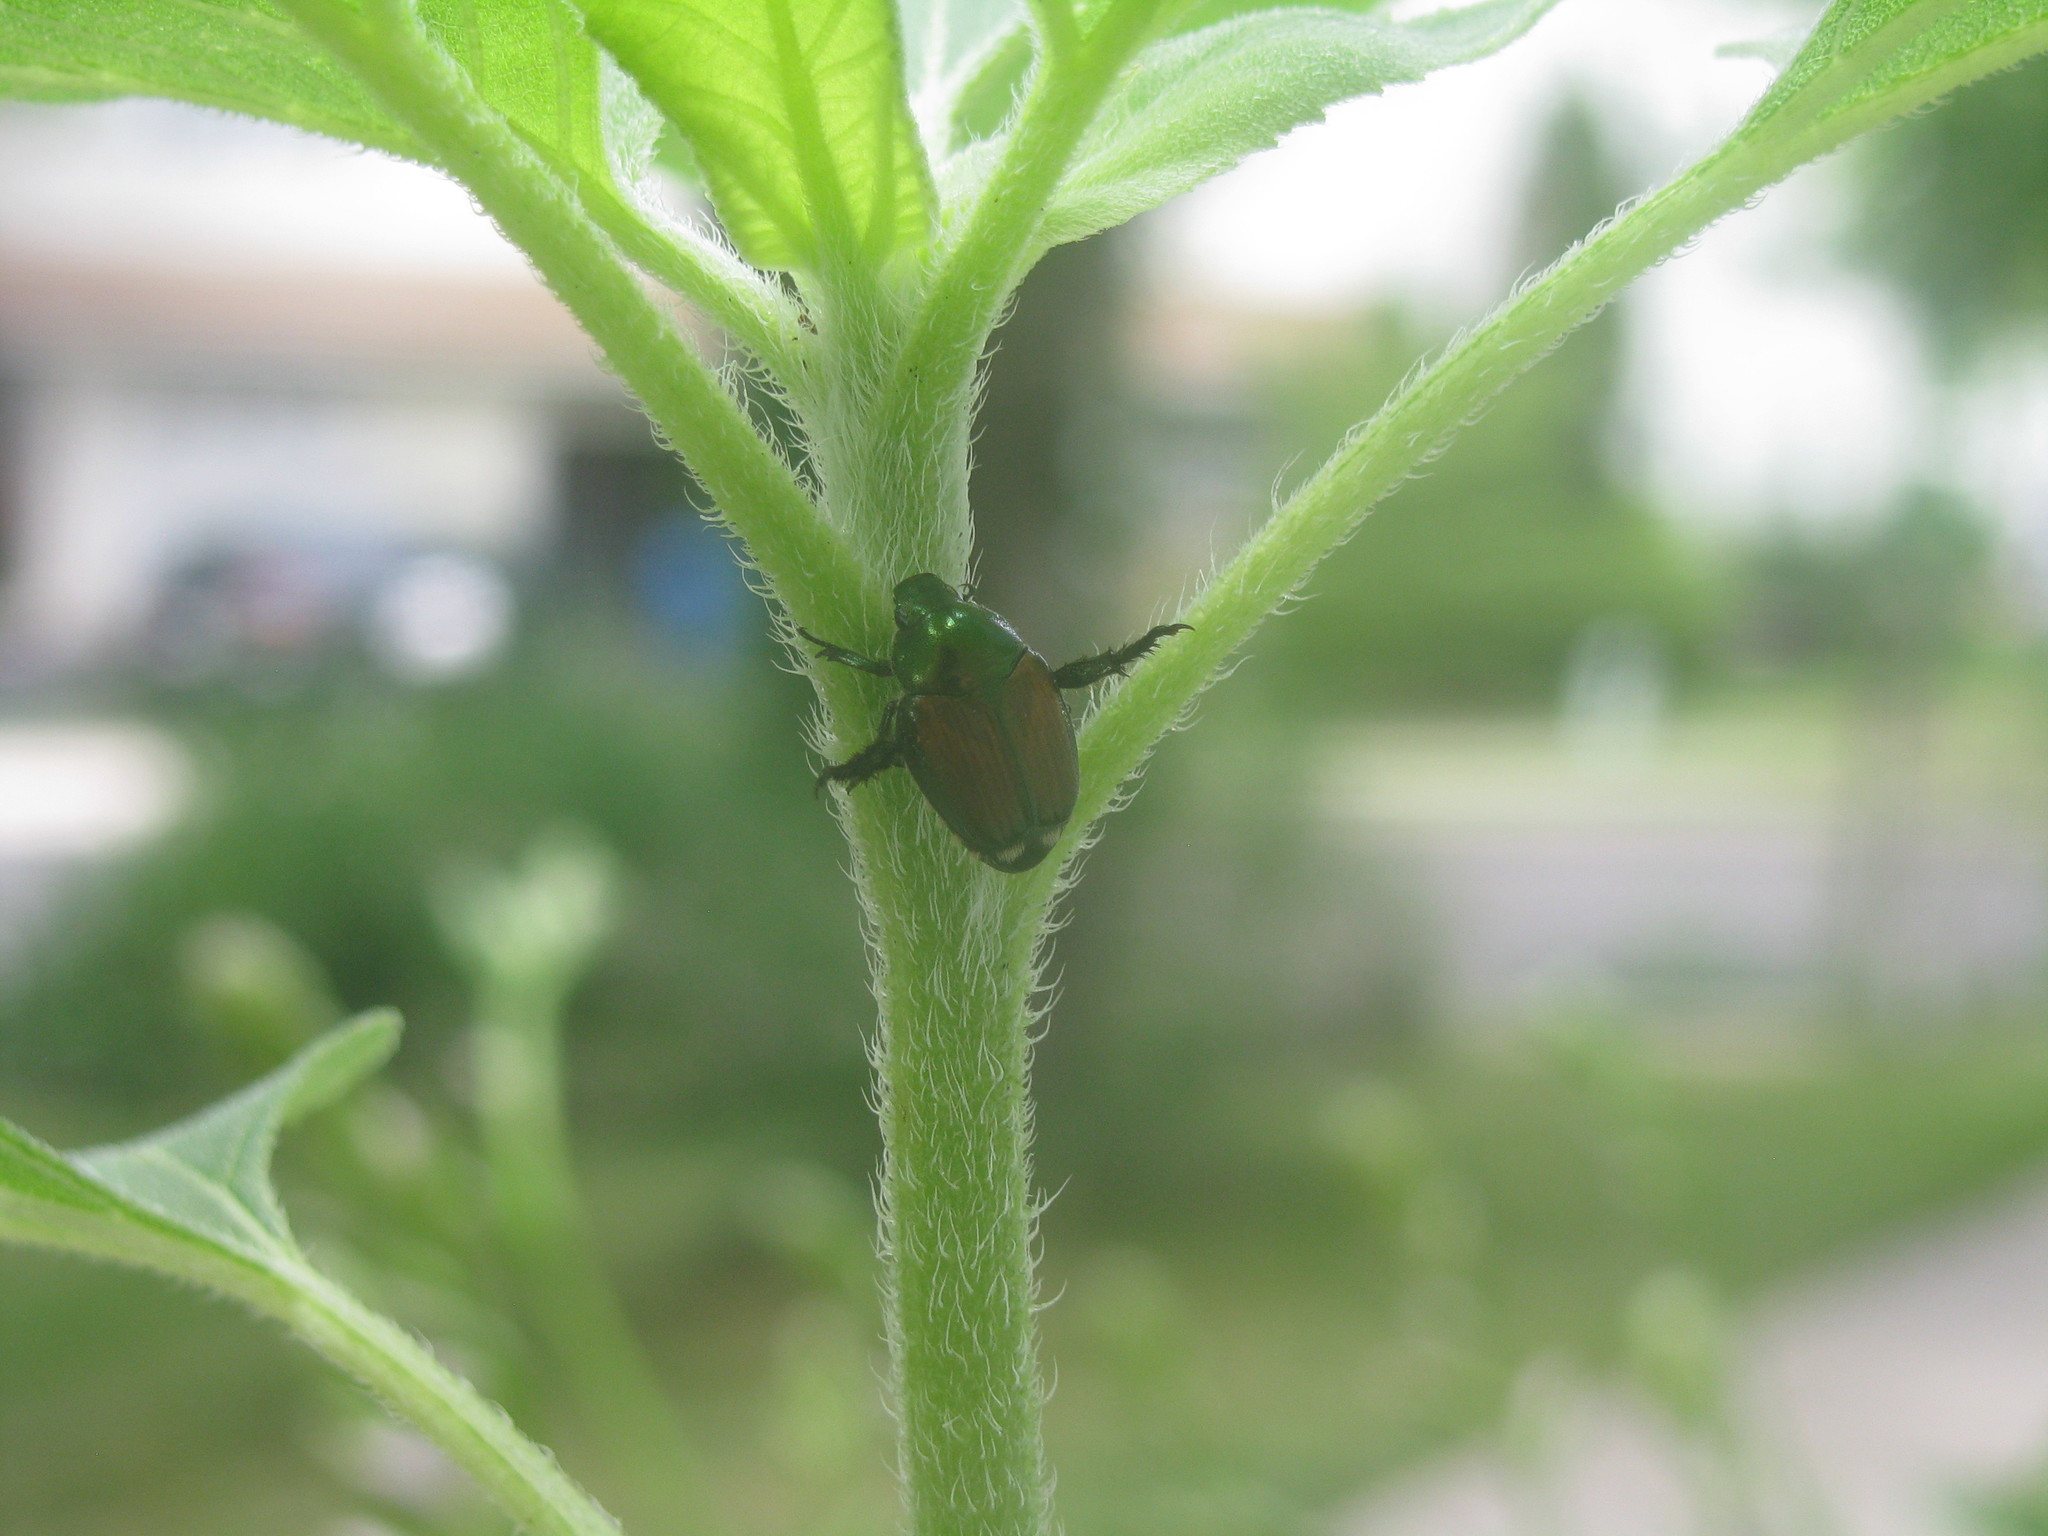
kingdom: Animalia
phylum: Arthropoda
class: Insecta
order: Coleoptera
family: Scarabaeidae
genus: Popillia
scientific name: Popillia japonica
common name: Japanese beetle
